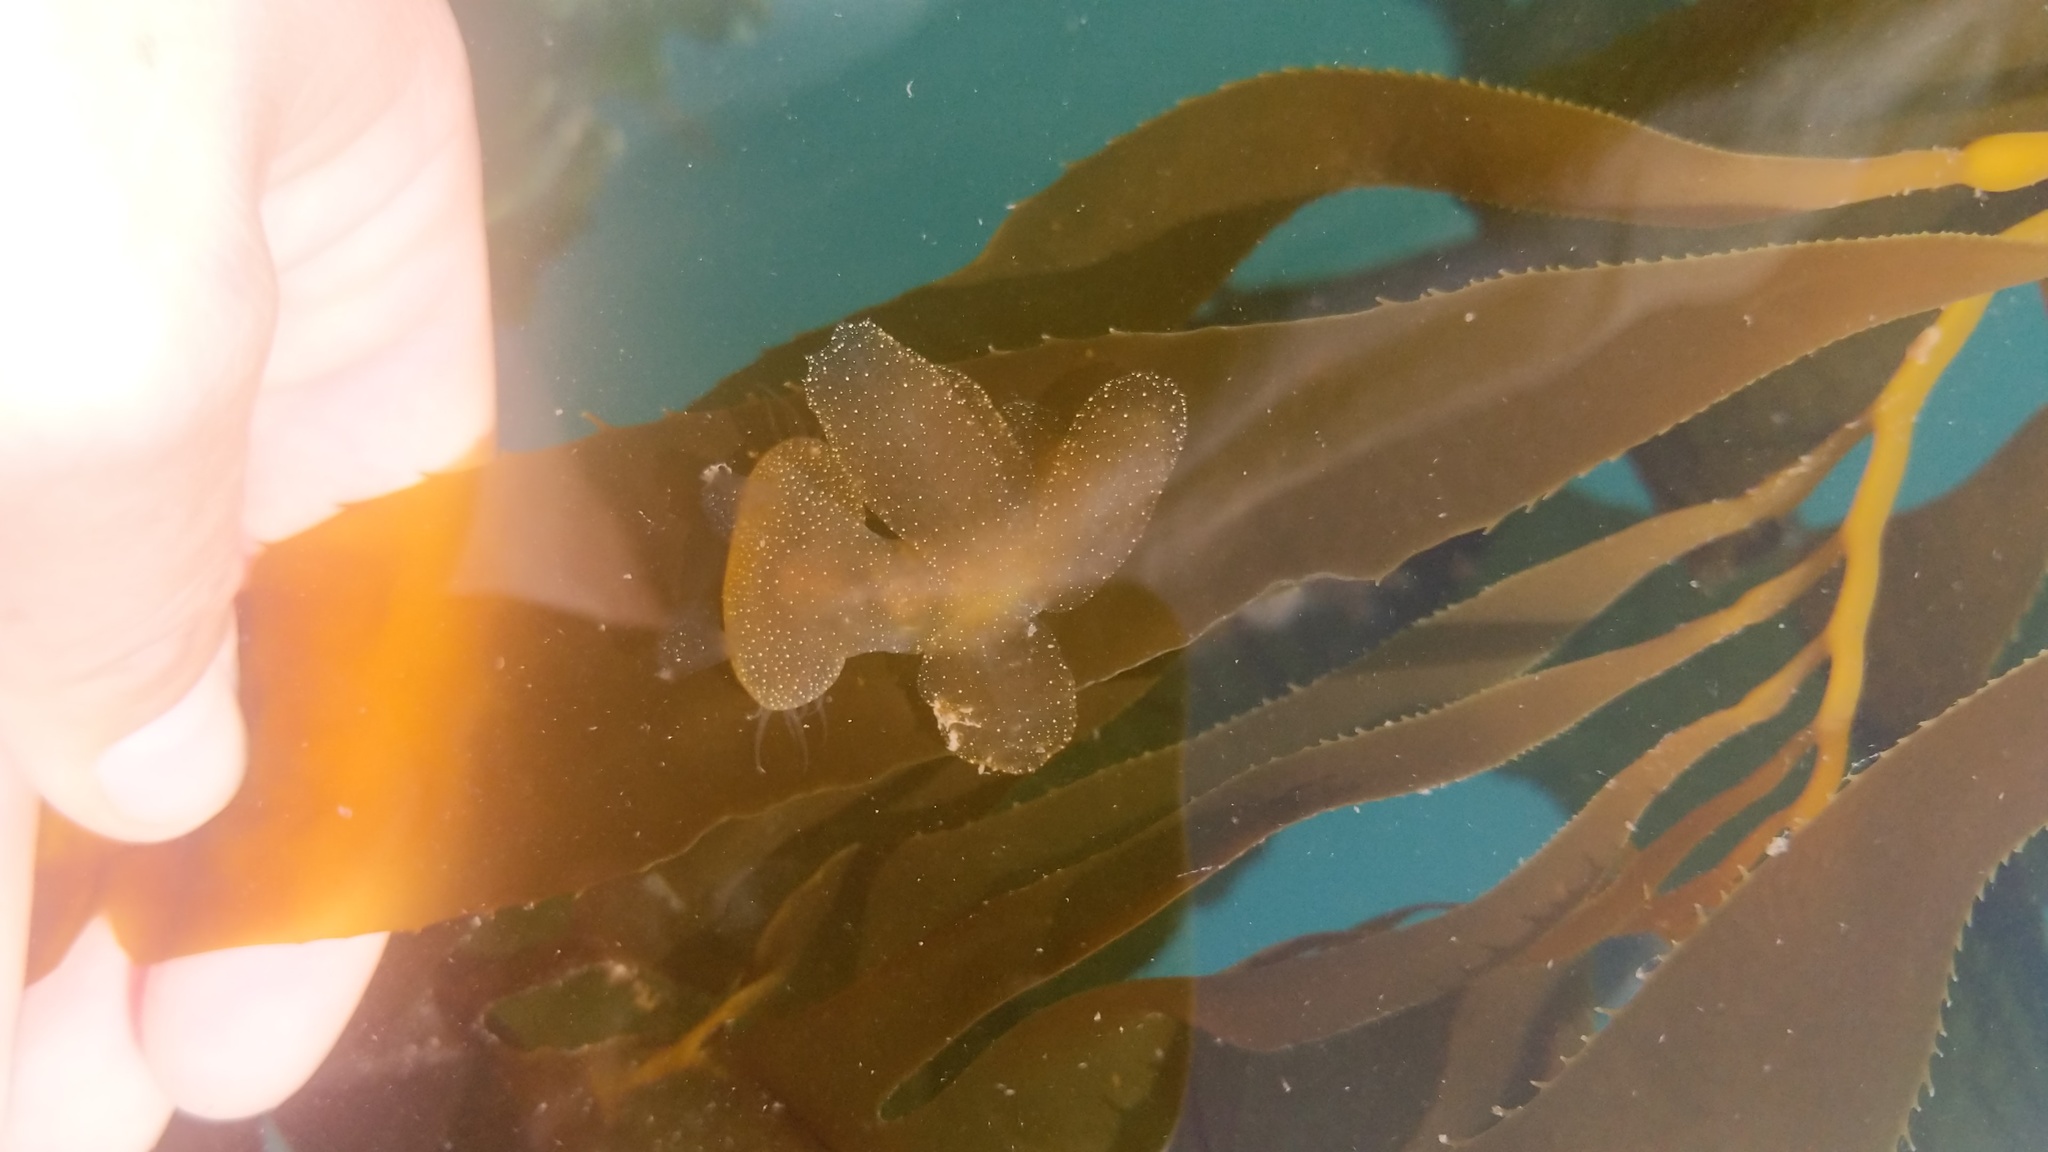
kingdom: Animalia
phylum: Mollusca
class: Gastropoda
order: Nudibranchia
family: Tethydidae
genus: Melibe
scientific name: Melibe leonina
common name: Lion nudibranch
